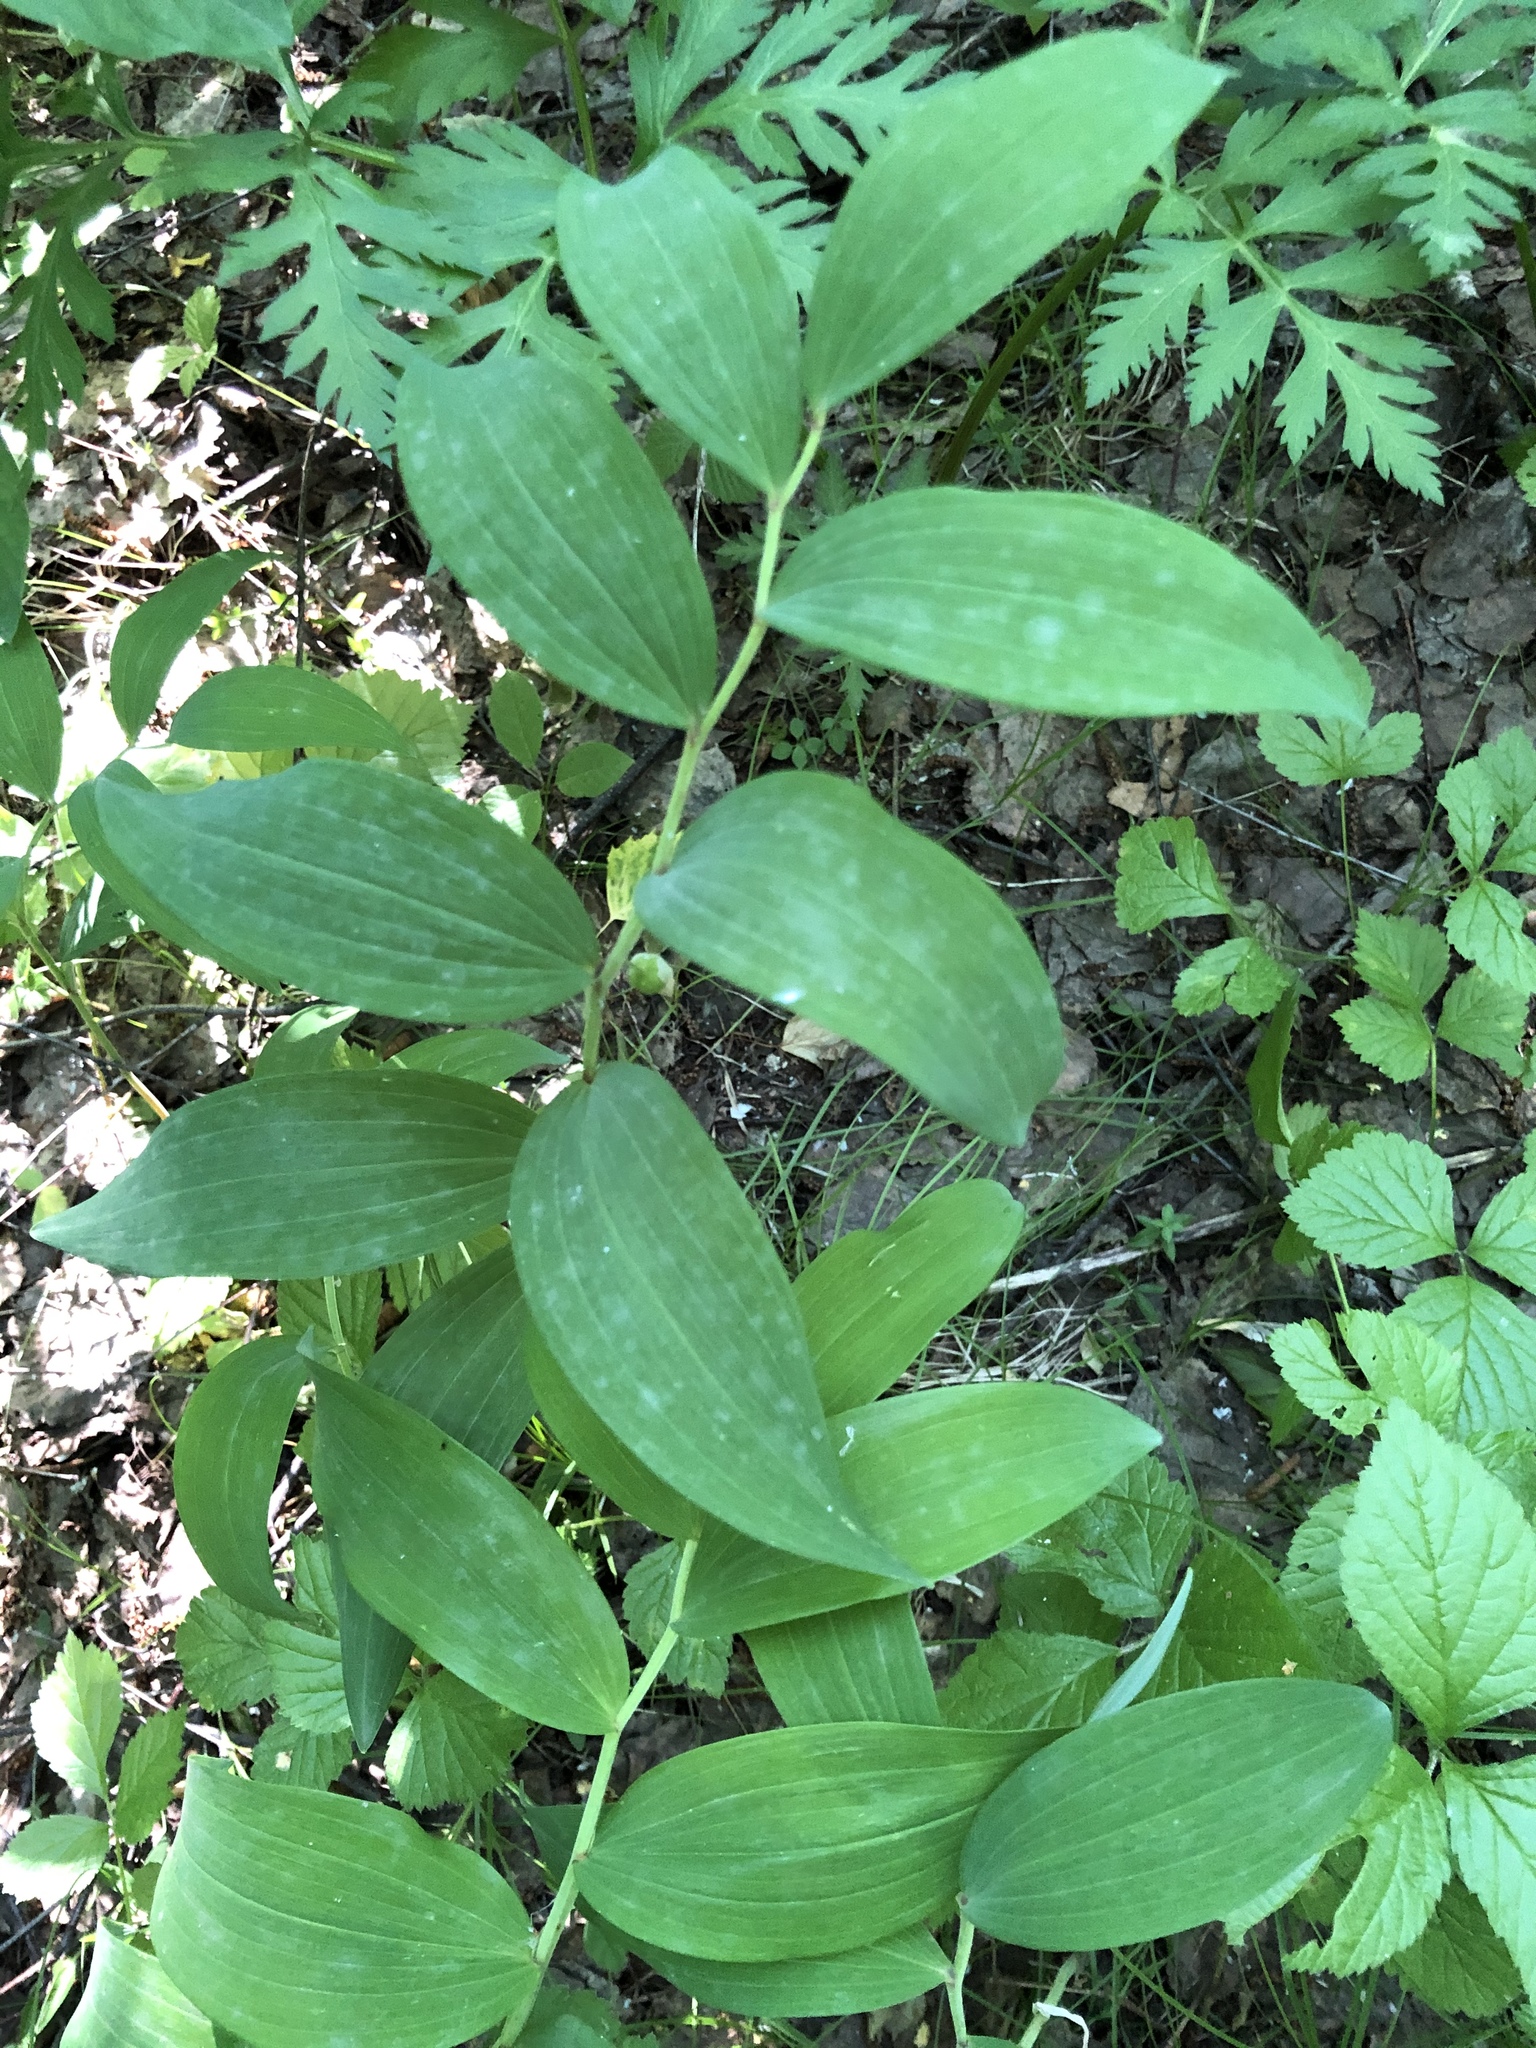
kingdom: Plantae
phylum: Tracheophyta
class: Liliopsida
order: Asparagales
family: Asparagaceae
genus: Polygonatum
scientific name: Polygonatum odoratum
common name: Angular solomon's-seal
